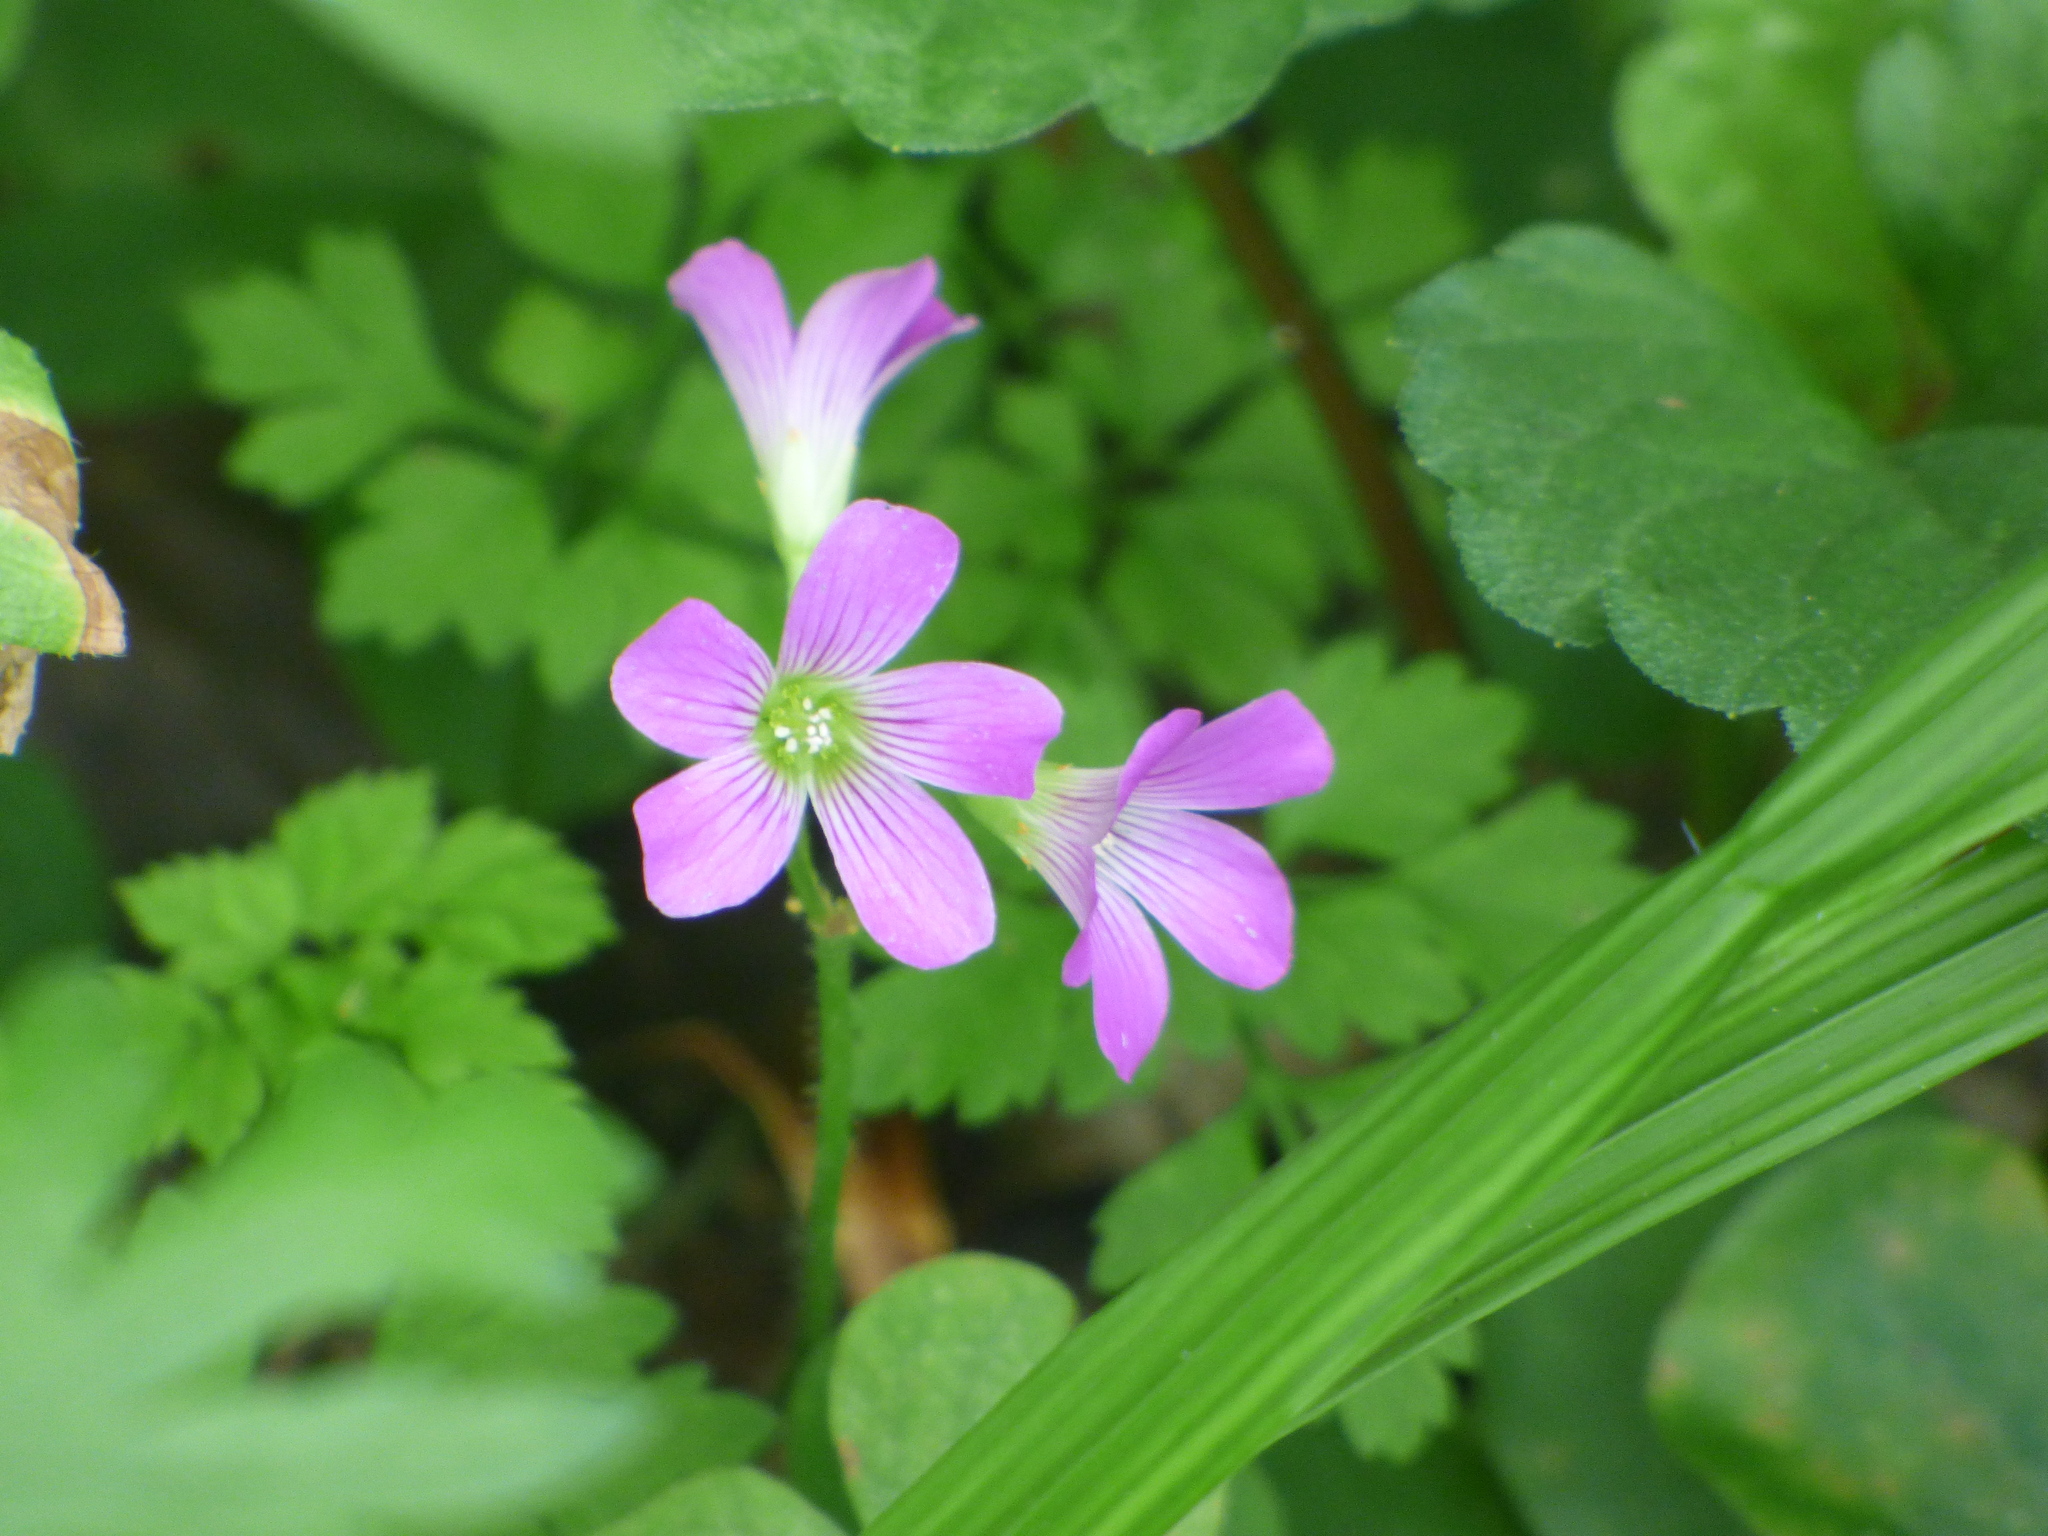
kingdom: Plantae
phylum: Tracheophyta
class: Magnoliopsida
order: Oxalidales
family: Oxalidaceae
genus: Oxalis
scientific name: Oxalis debilis
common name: Large-flowered pink-sorrel
